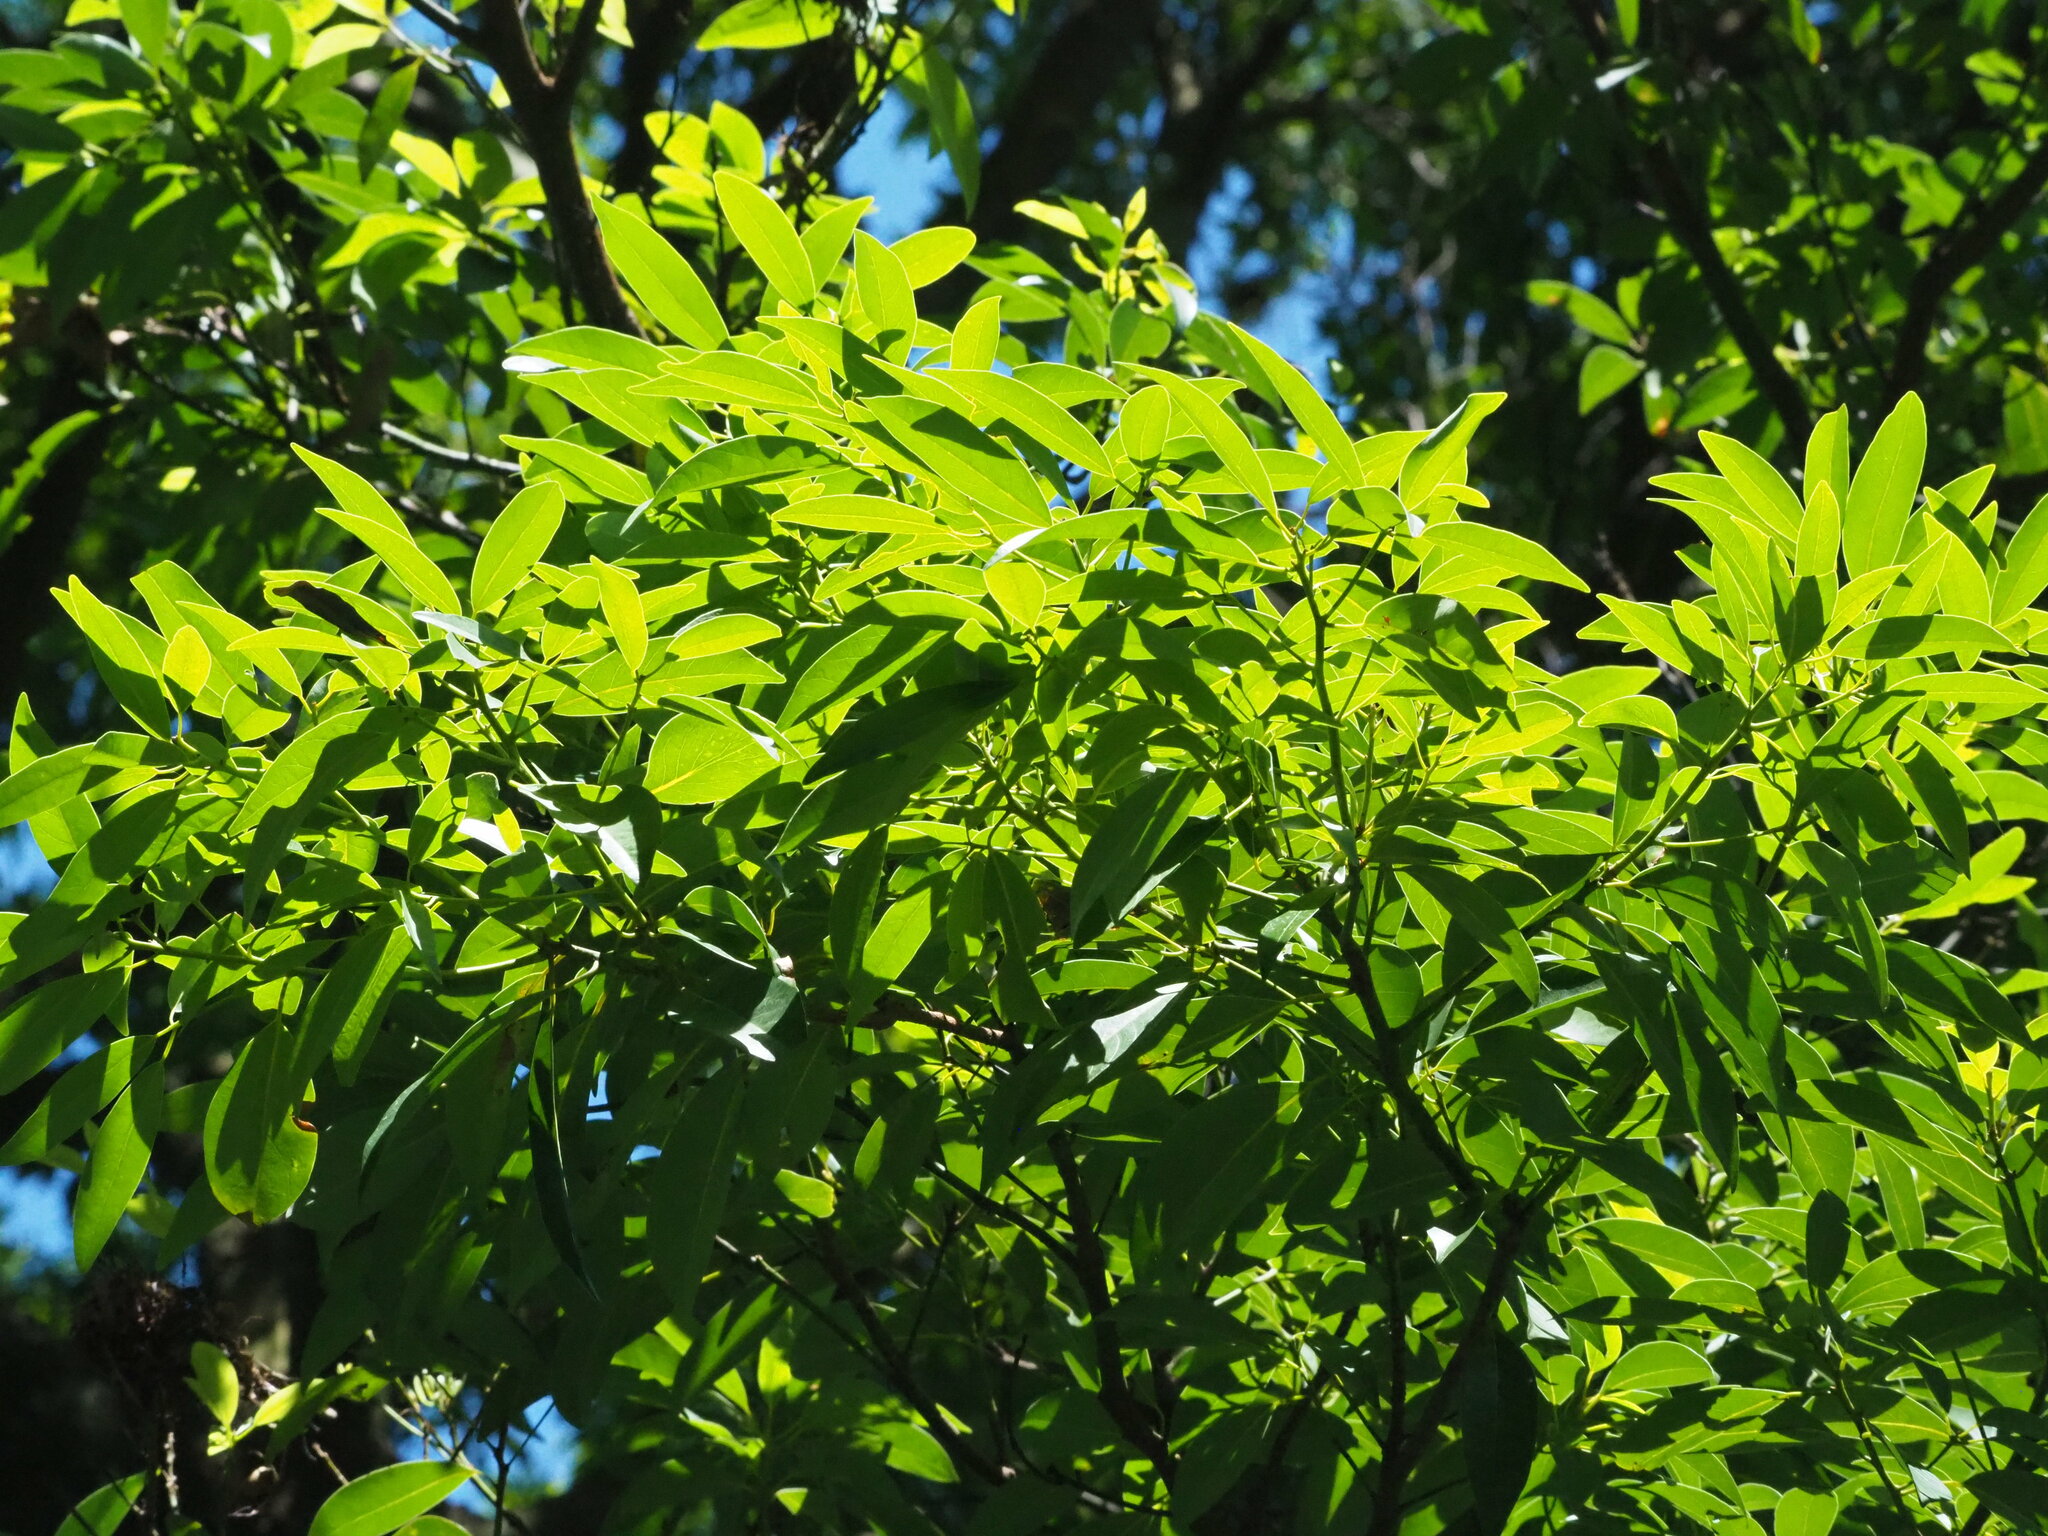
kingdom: Plantae
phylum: Tracheophyta
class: Magnoliopsida
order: Laurales
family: Lauraceae
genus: Machilus
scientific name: Machilus zuihoensis
